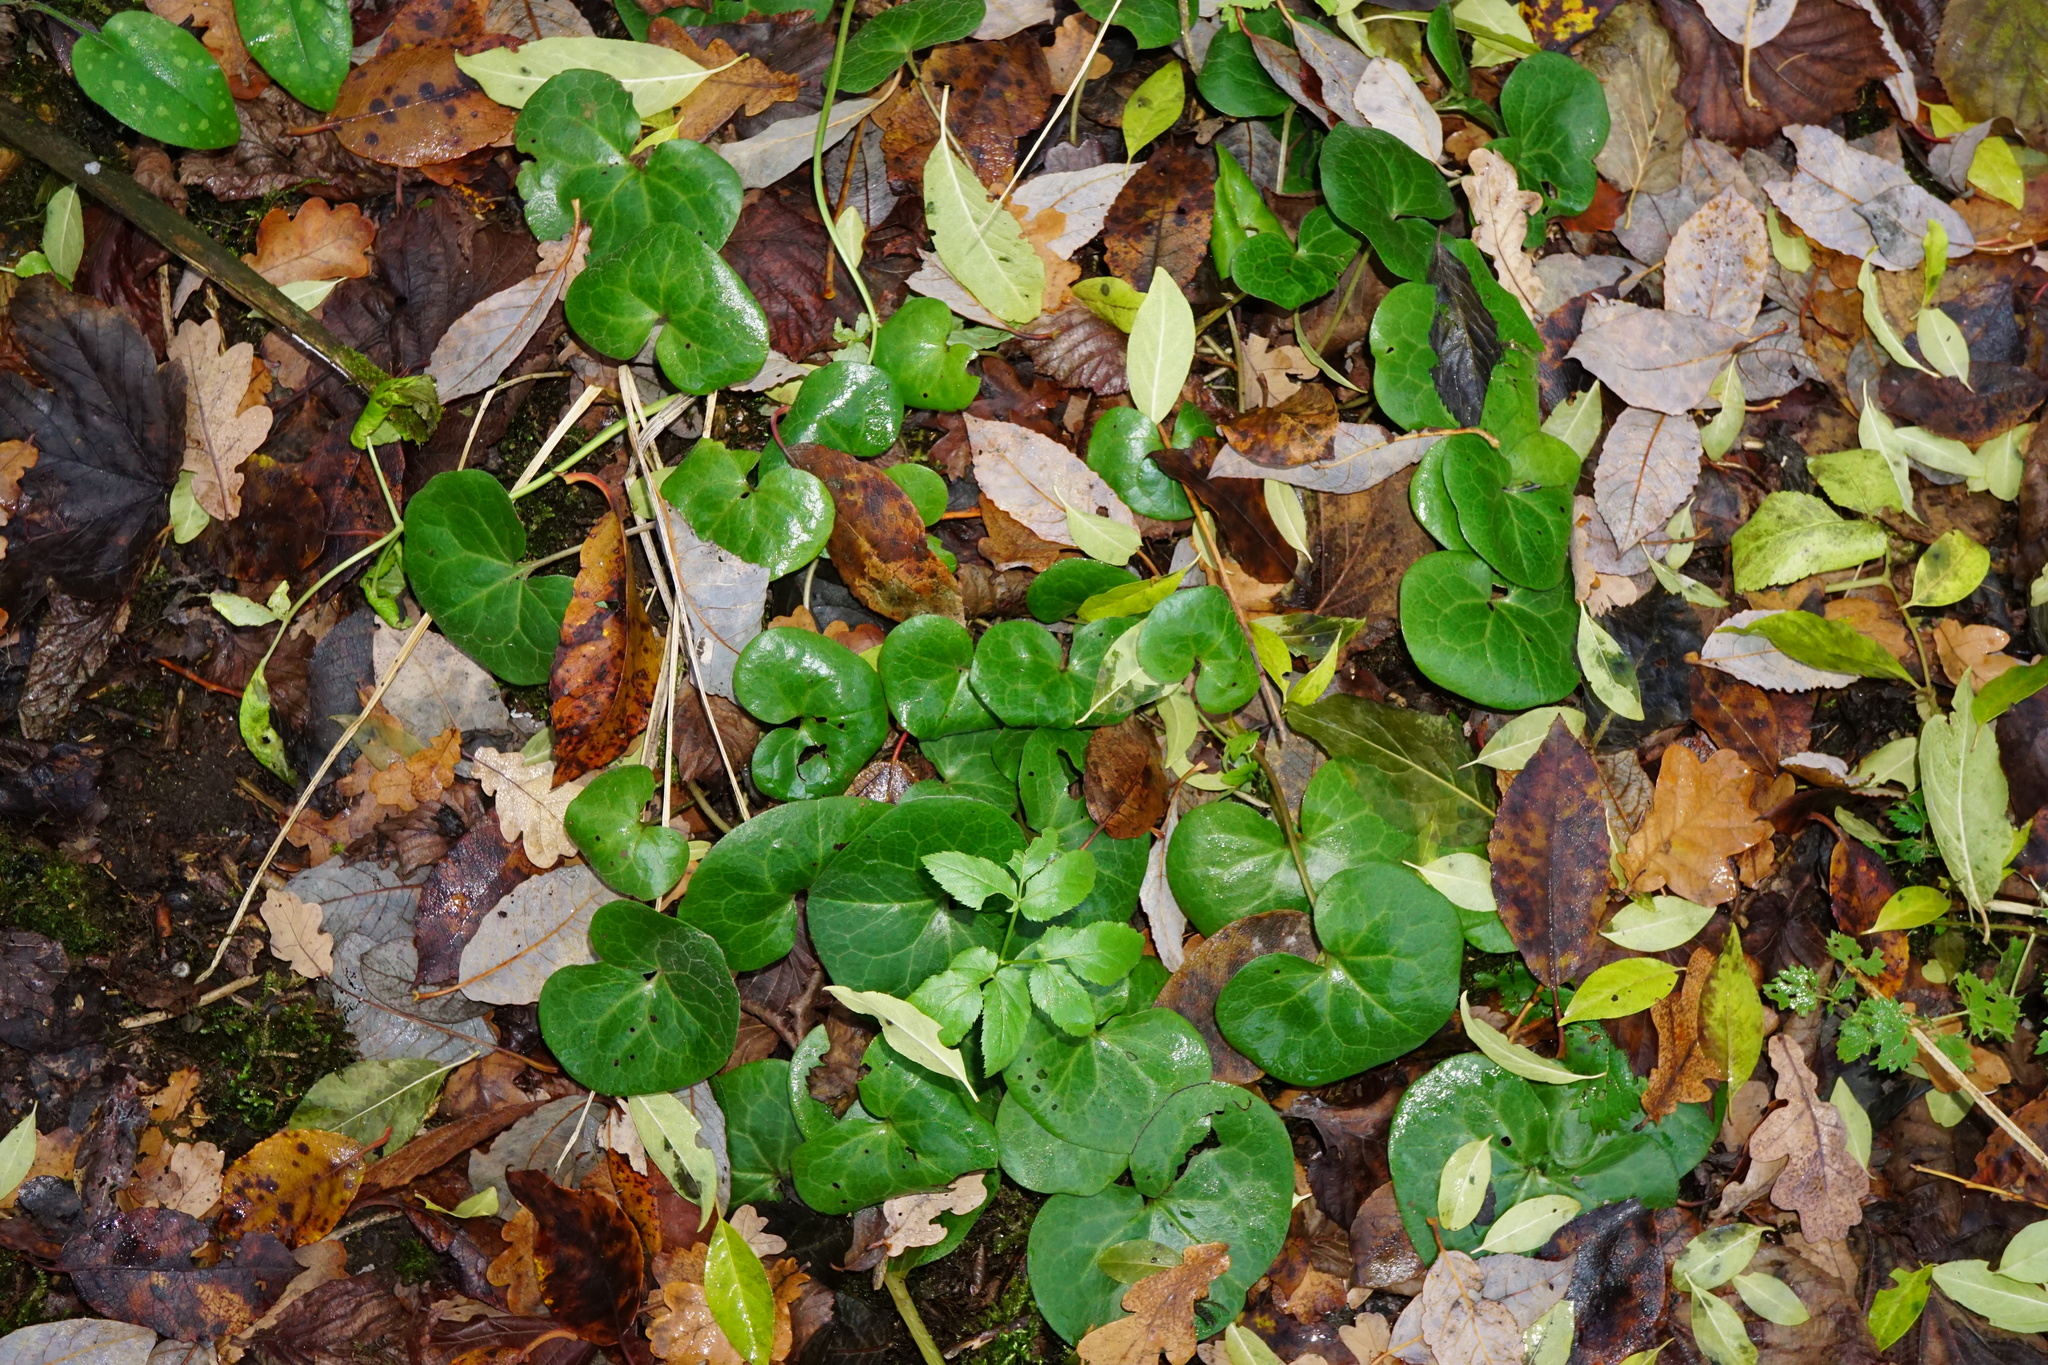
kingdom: Plantae
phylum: Tracheophyta
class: Magnoliopsida
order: Piperales
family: Aristolochiaceae
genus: Asarum
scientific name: Asarum europaeum
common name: Asarabacca
